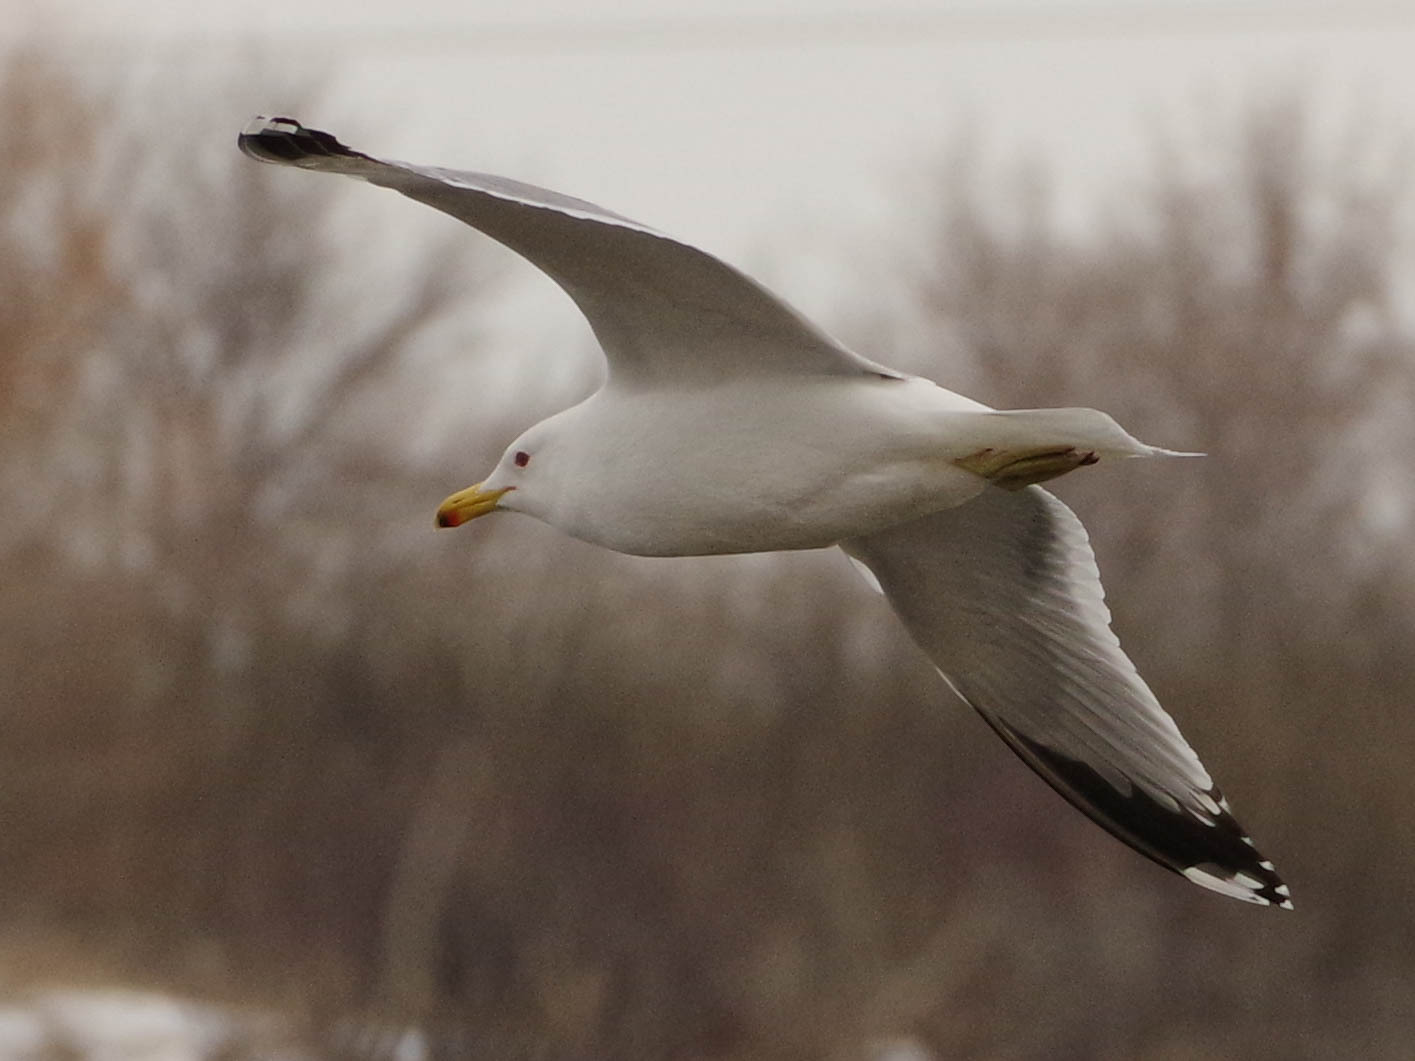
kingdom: Animalia
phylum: Chordata
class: Aves
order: Charadriiformes
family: Laridae
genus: Larus
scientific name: Larus californicus
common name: California gull
